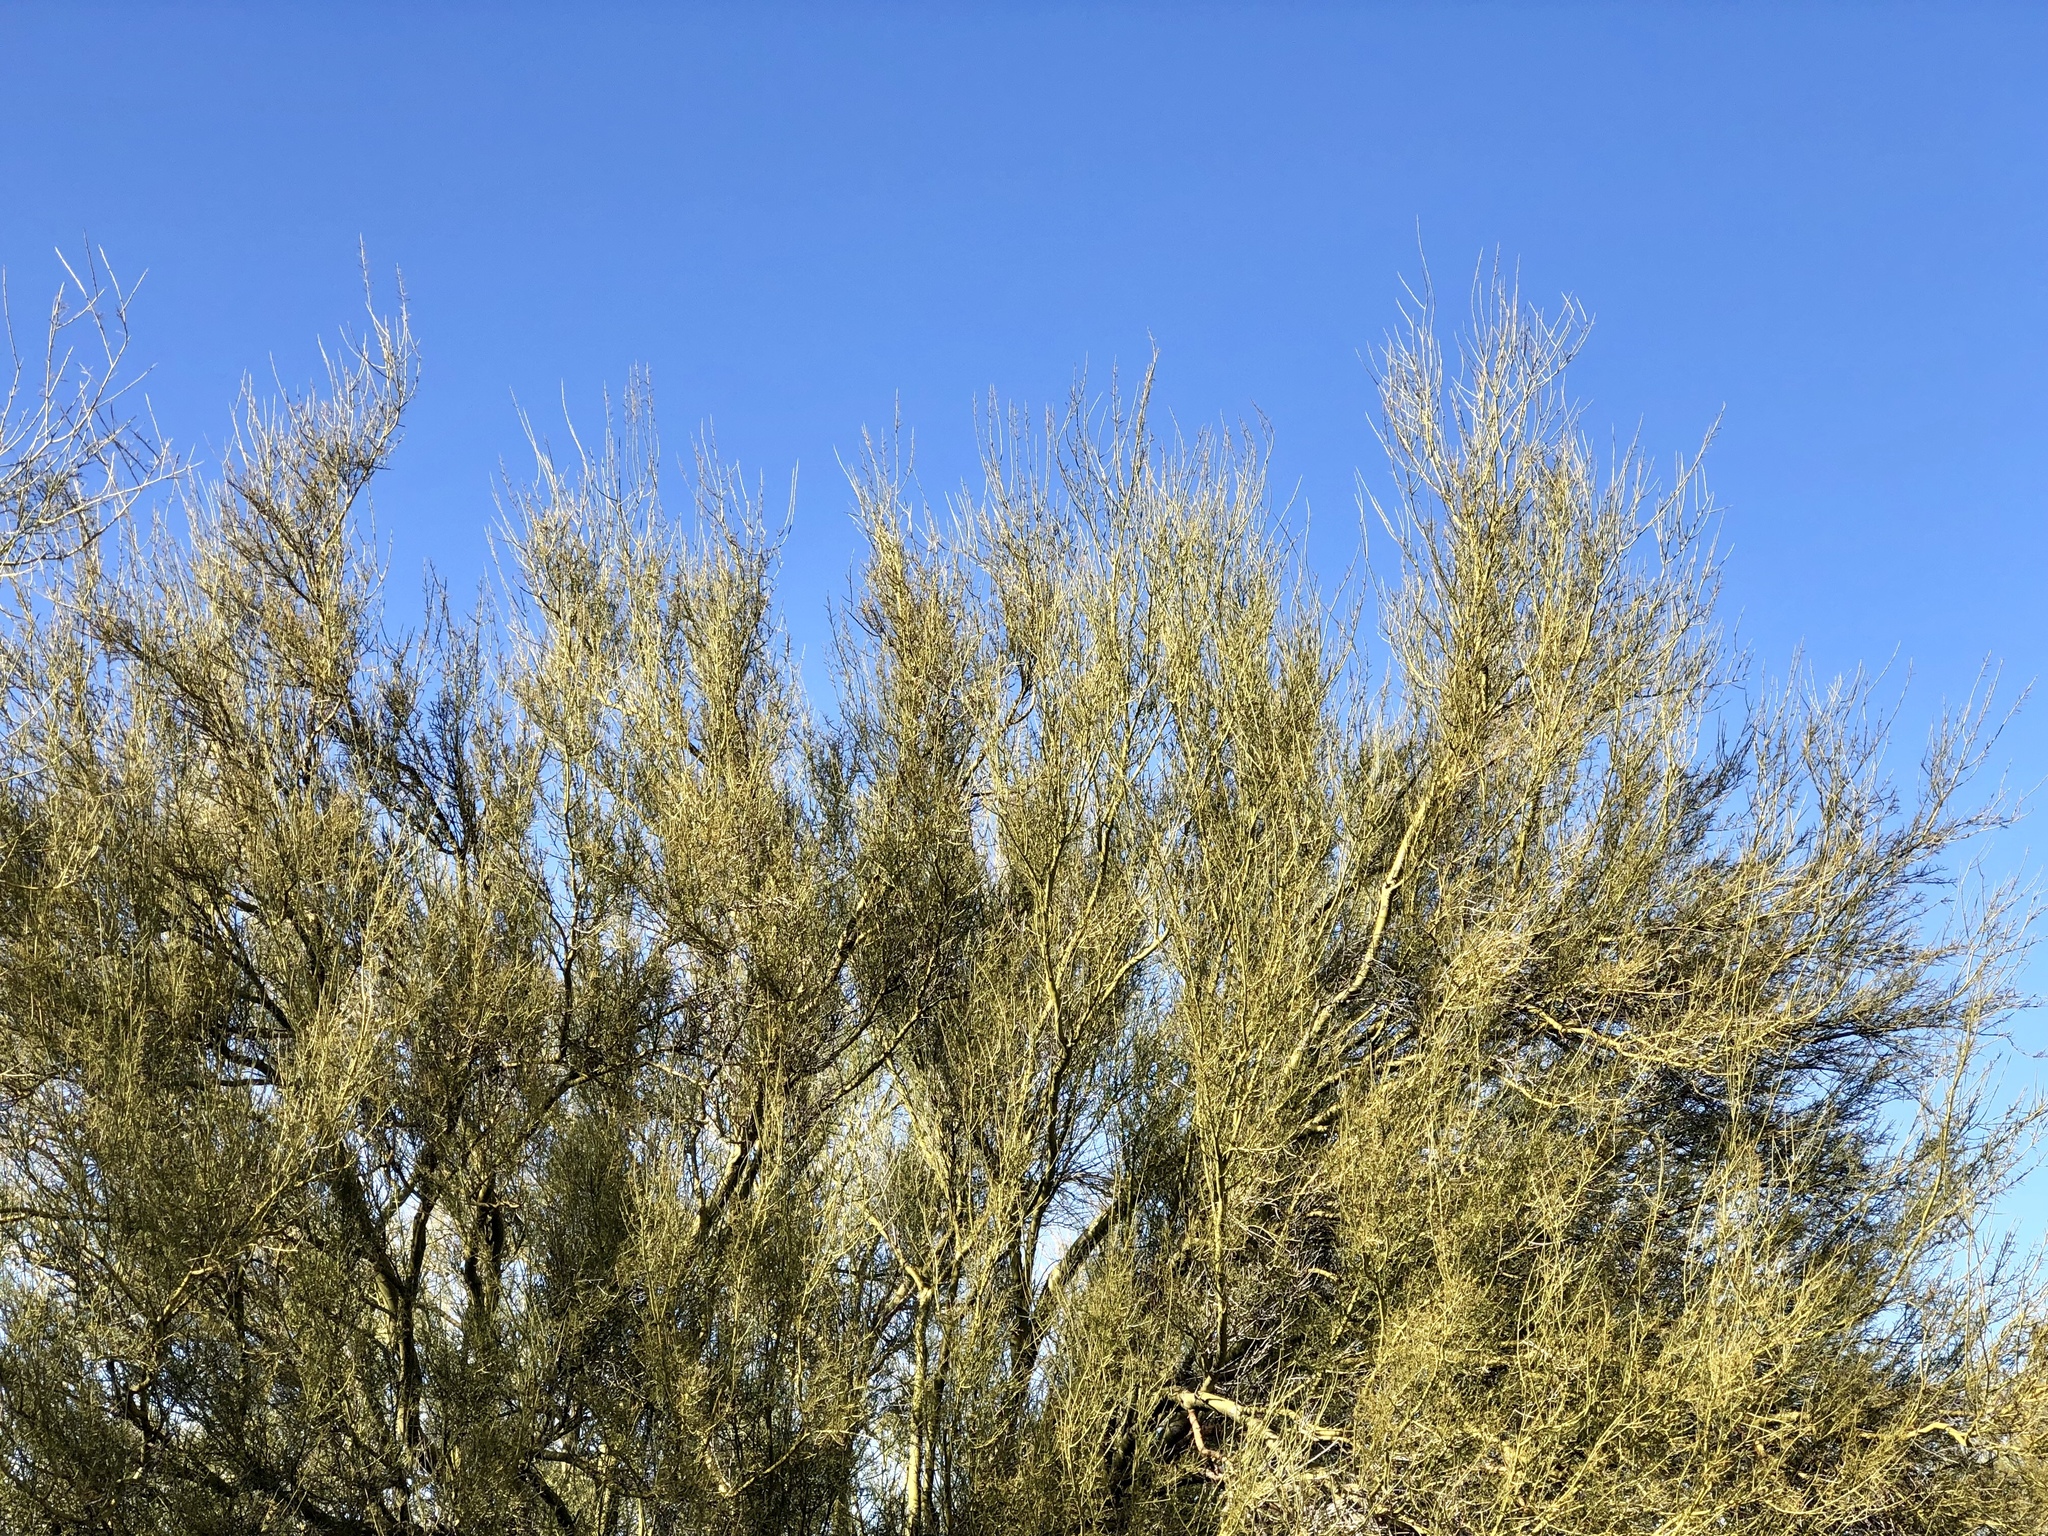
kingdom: Plantae
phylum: Tracheophyta
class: Magnoliopsida
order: Fabales
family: Fabaceae
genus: Parkinsonia
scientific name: Parkinsonia microphylla
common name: Yellow paloverde
